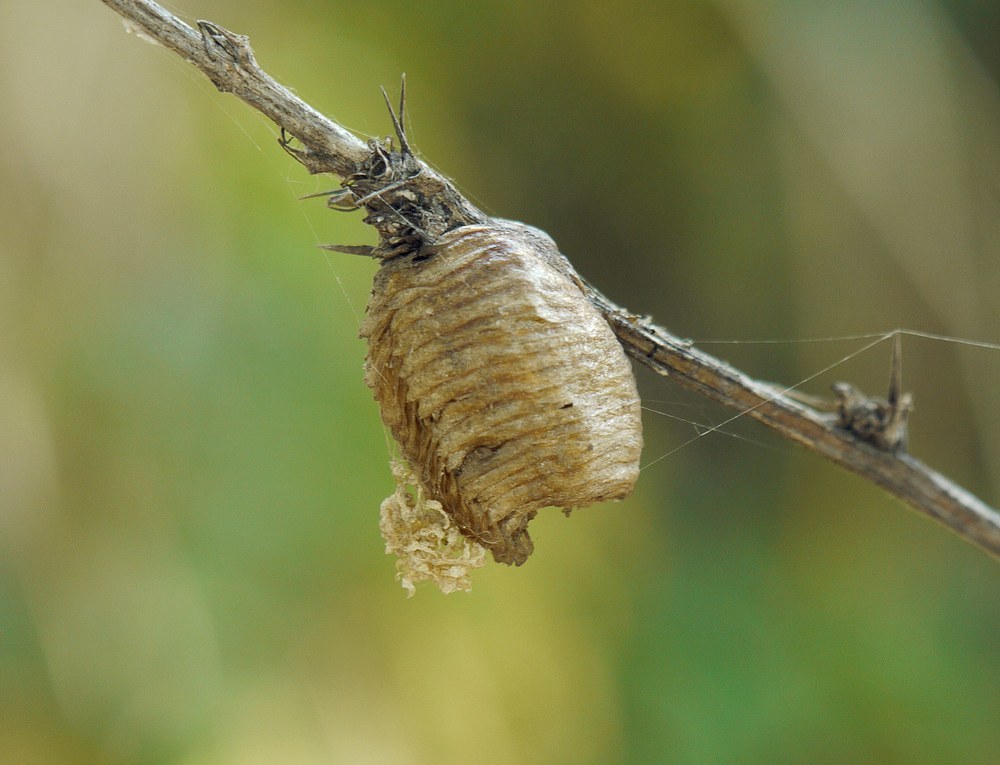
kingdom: Animalia
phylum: Arthropoda
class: Insecta
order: Mantodea
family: Mantidae
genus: Hierodula
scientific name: Hierodula transcaucasica
